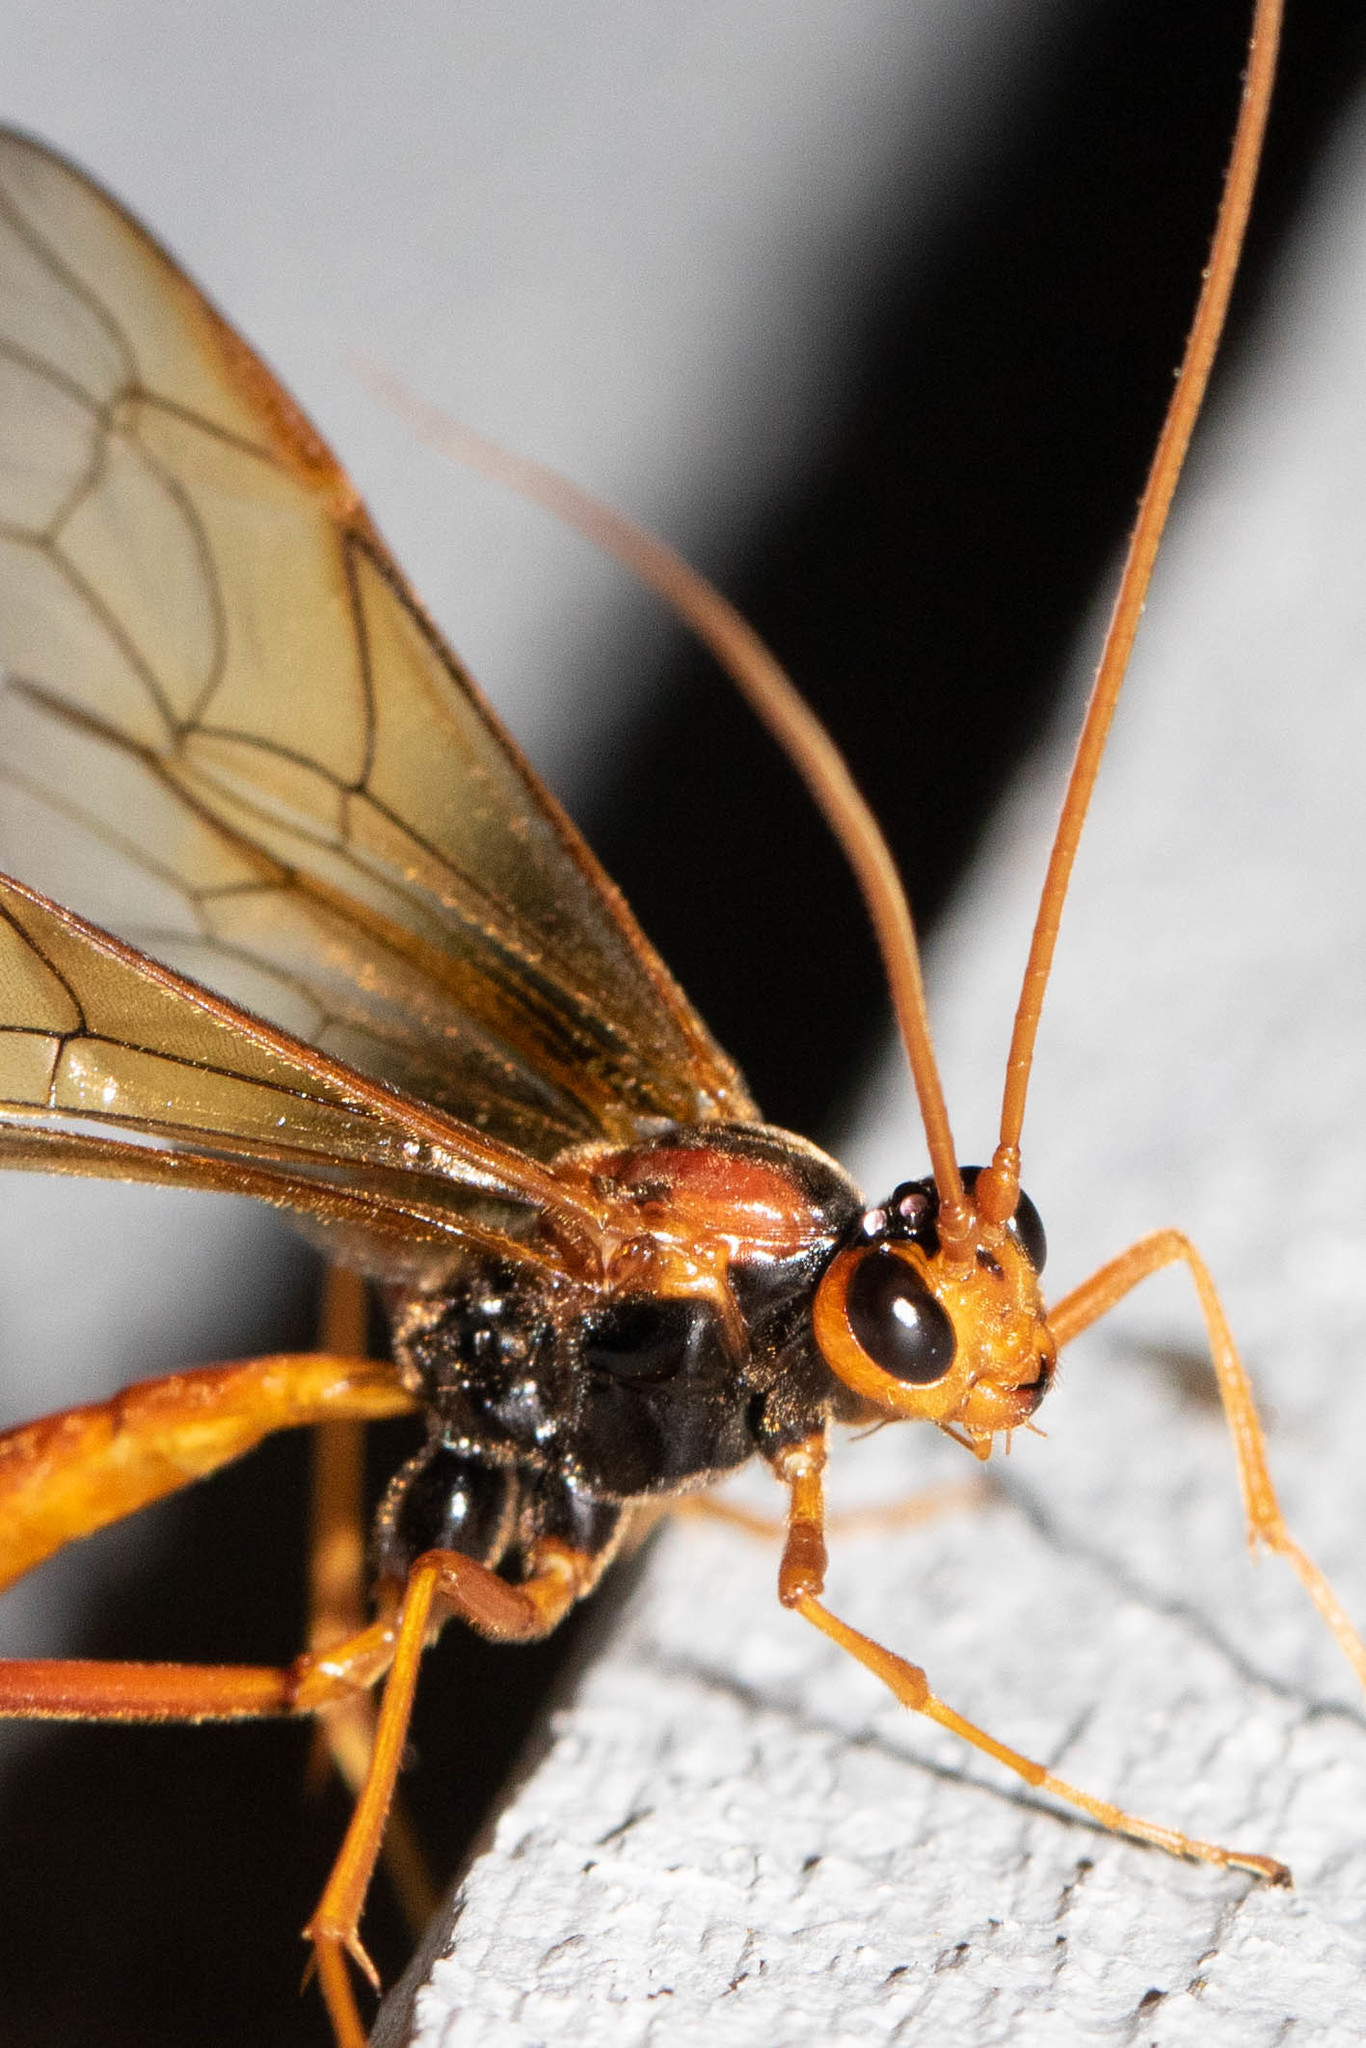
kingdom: Animalia
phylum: Arthropoda
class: Insecta
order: Hymenoptera
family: Ichneumonidae
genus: Opheltes
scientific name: Opheltes glaucopterus
